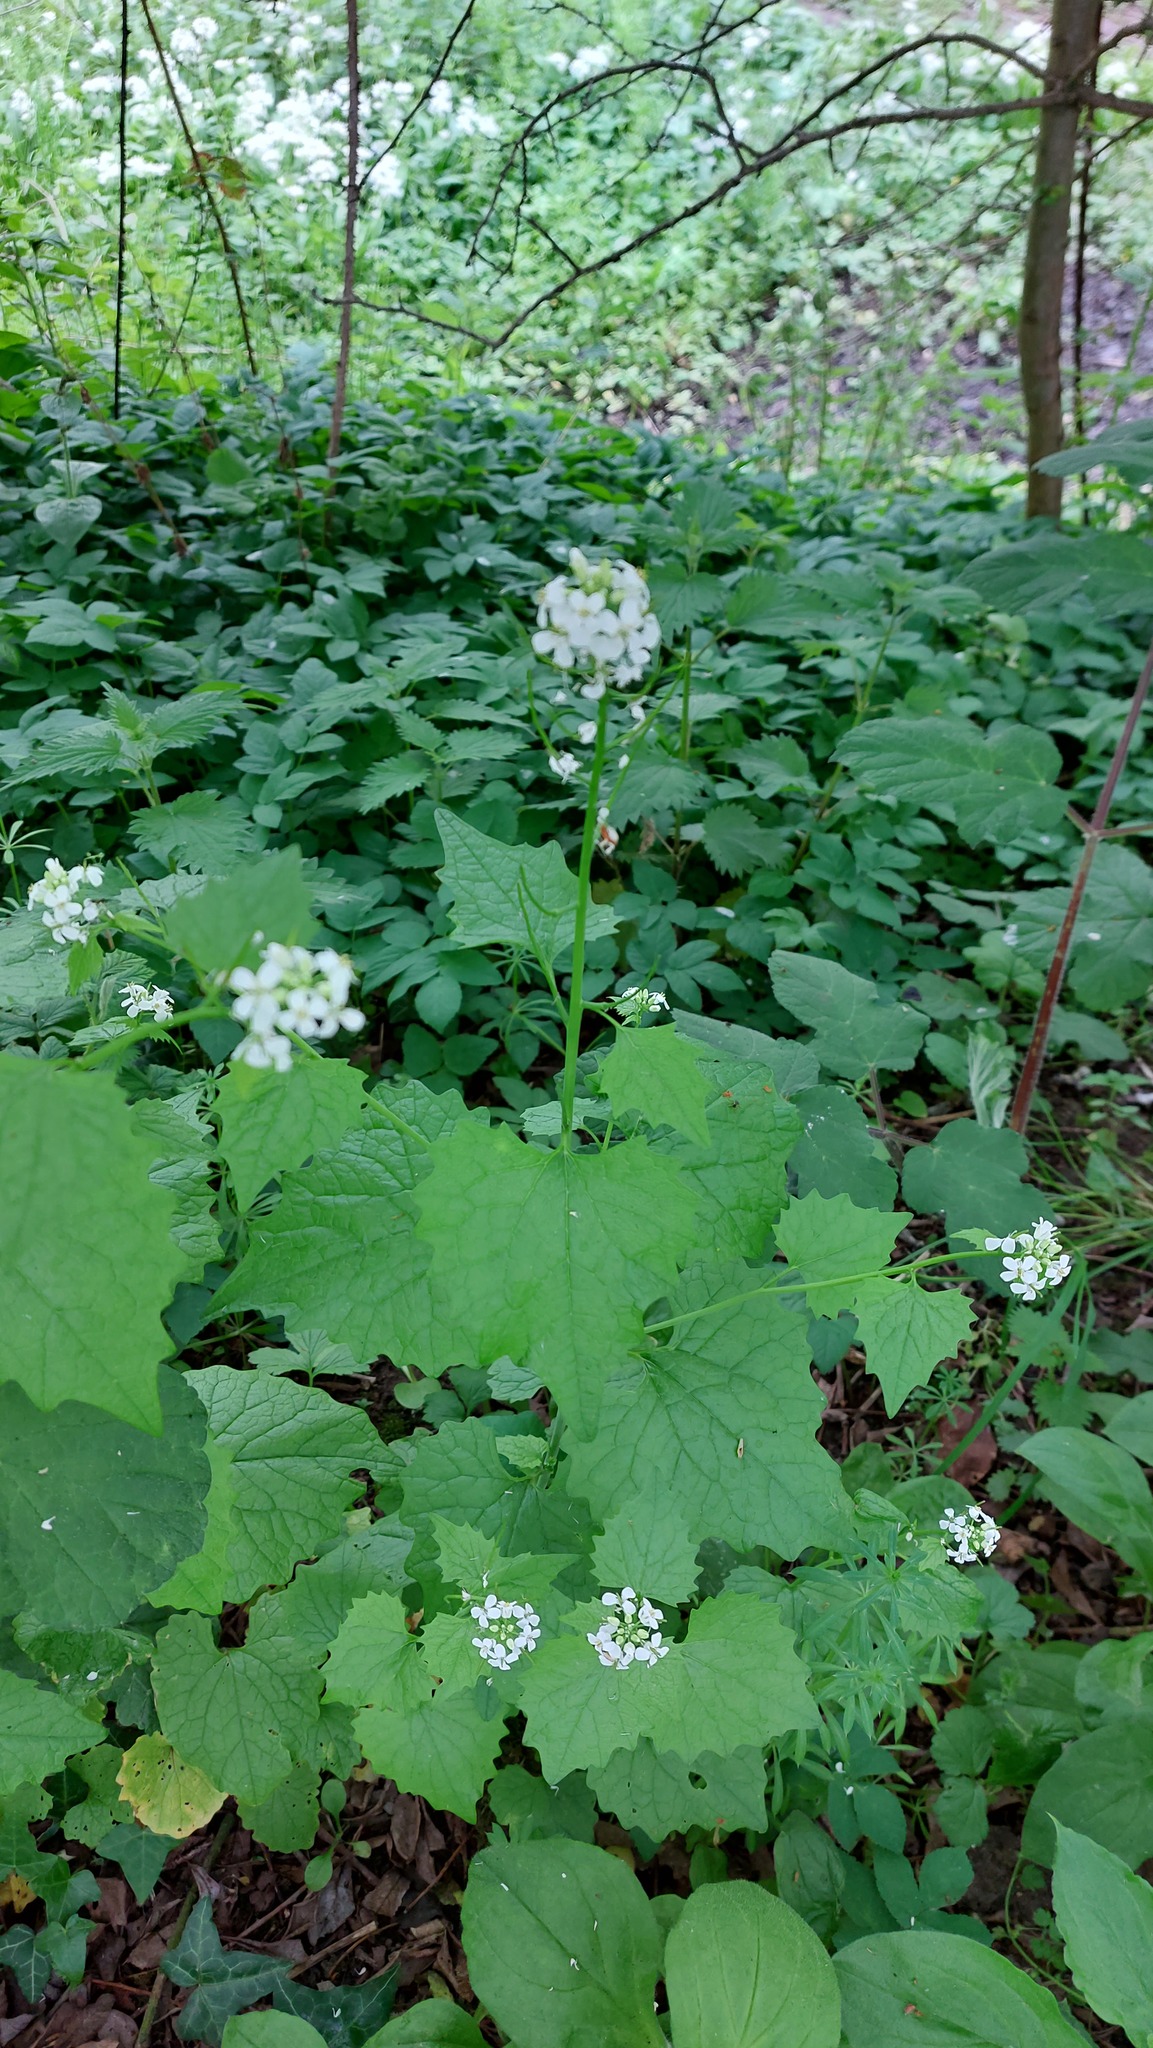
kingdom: Plantae
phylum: Tracheophyta
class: Magnoliopsida
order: Brassicales
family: Brassicaceae
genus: Alliaria
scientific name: Alliaria petiolata
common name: Garlic mustard
